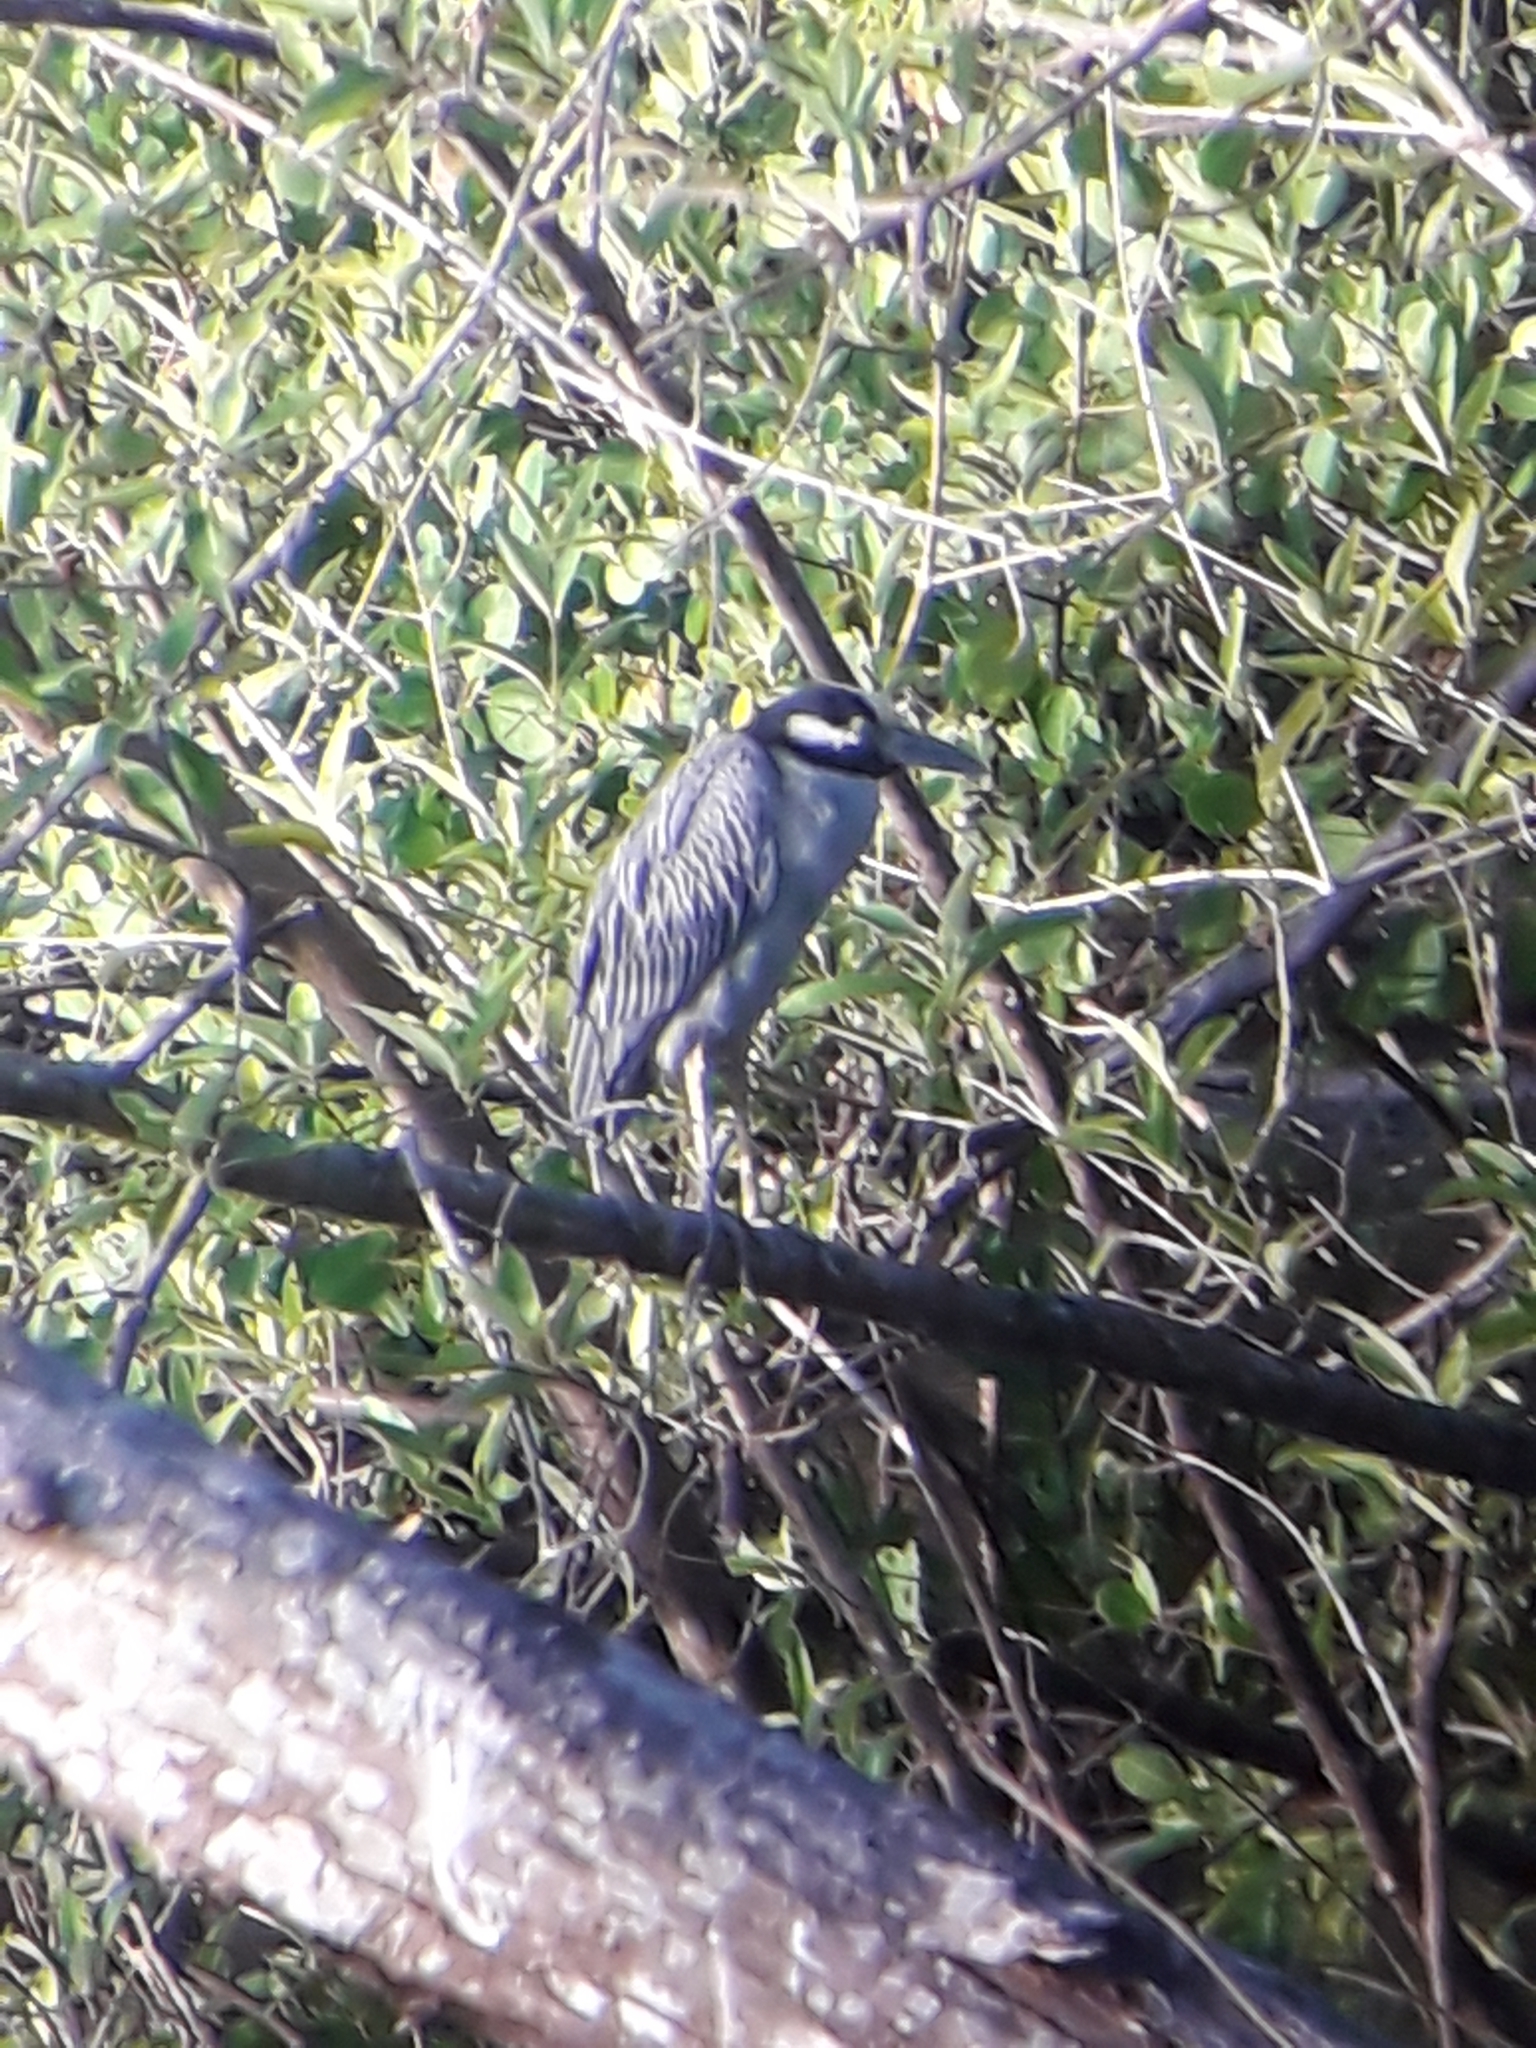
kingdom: Animalia
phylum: Chordata
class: Aves
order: Pelecaniformes
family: Ardeidae
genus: Nyctanassa
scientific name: Nyctanassa violacea
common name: Yellow-crowned night heron
